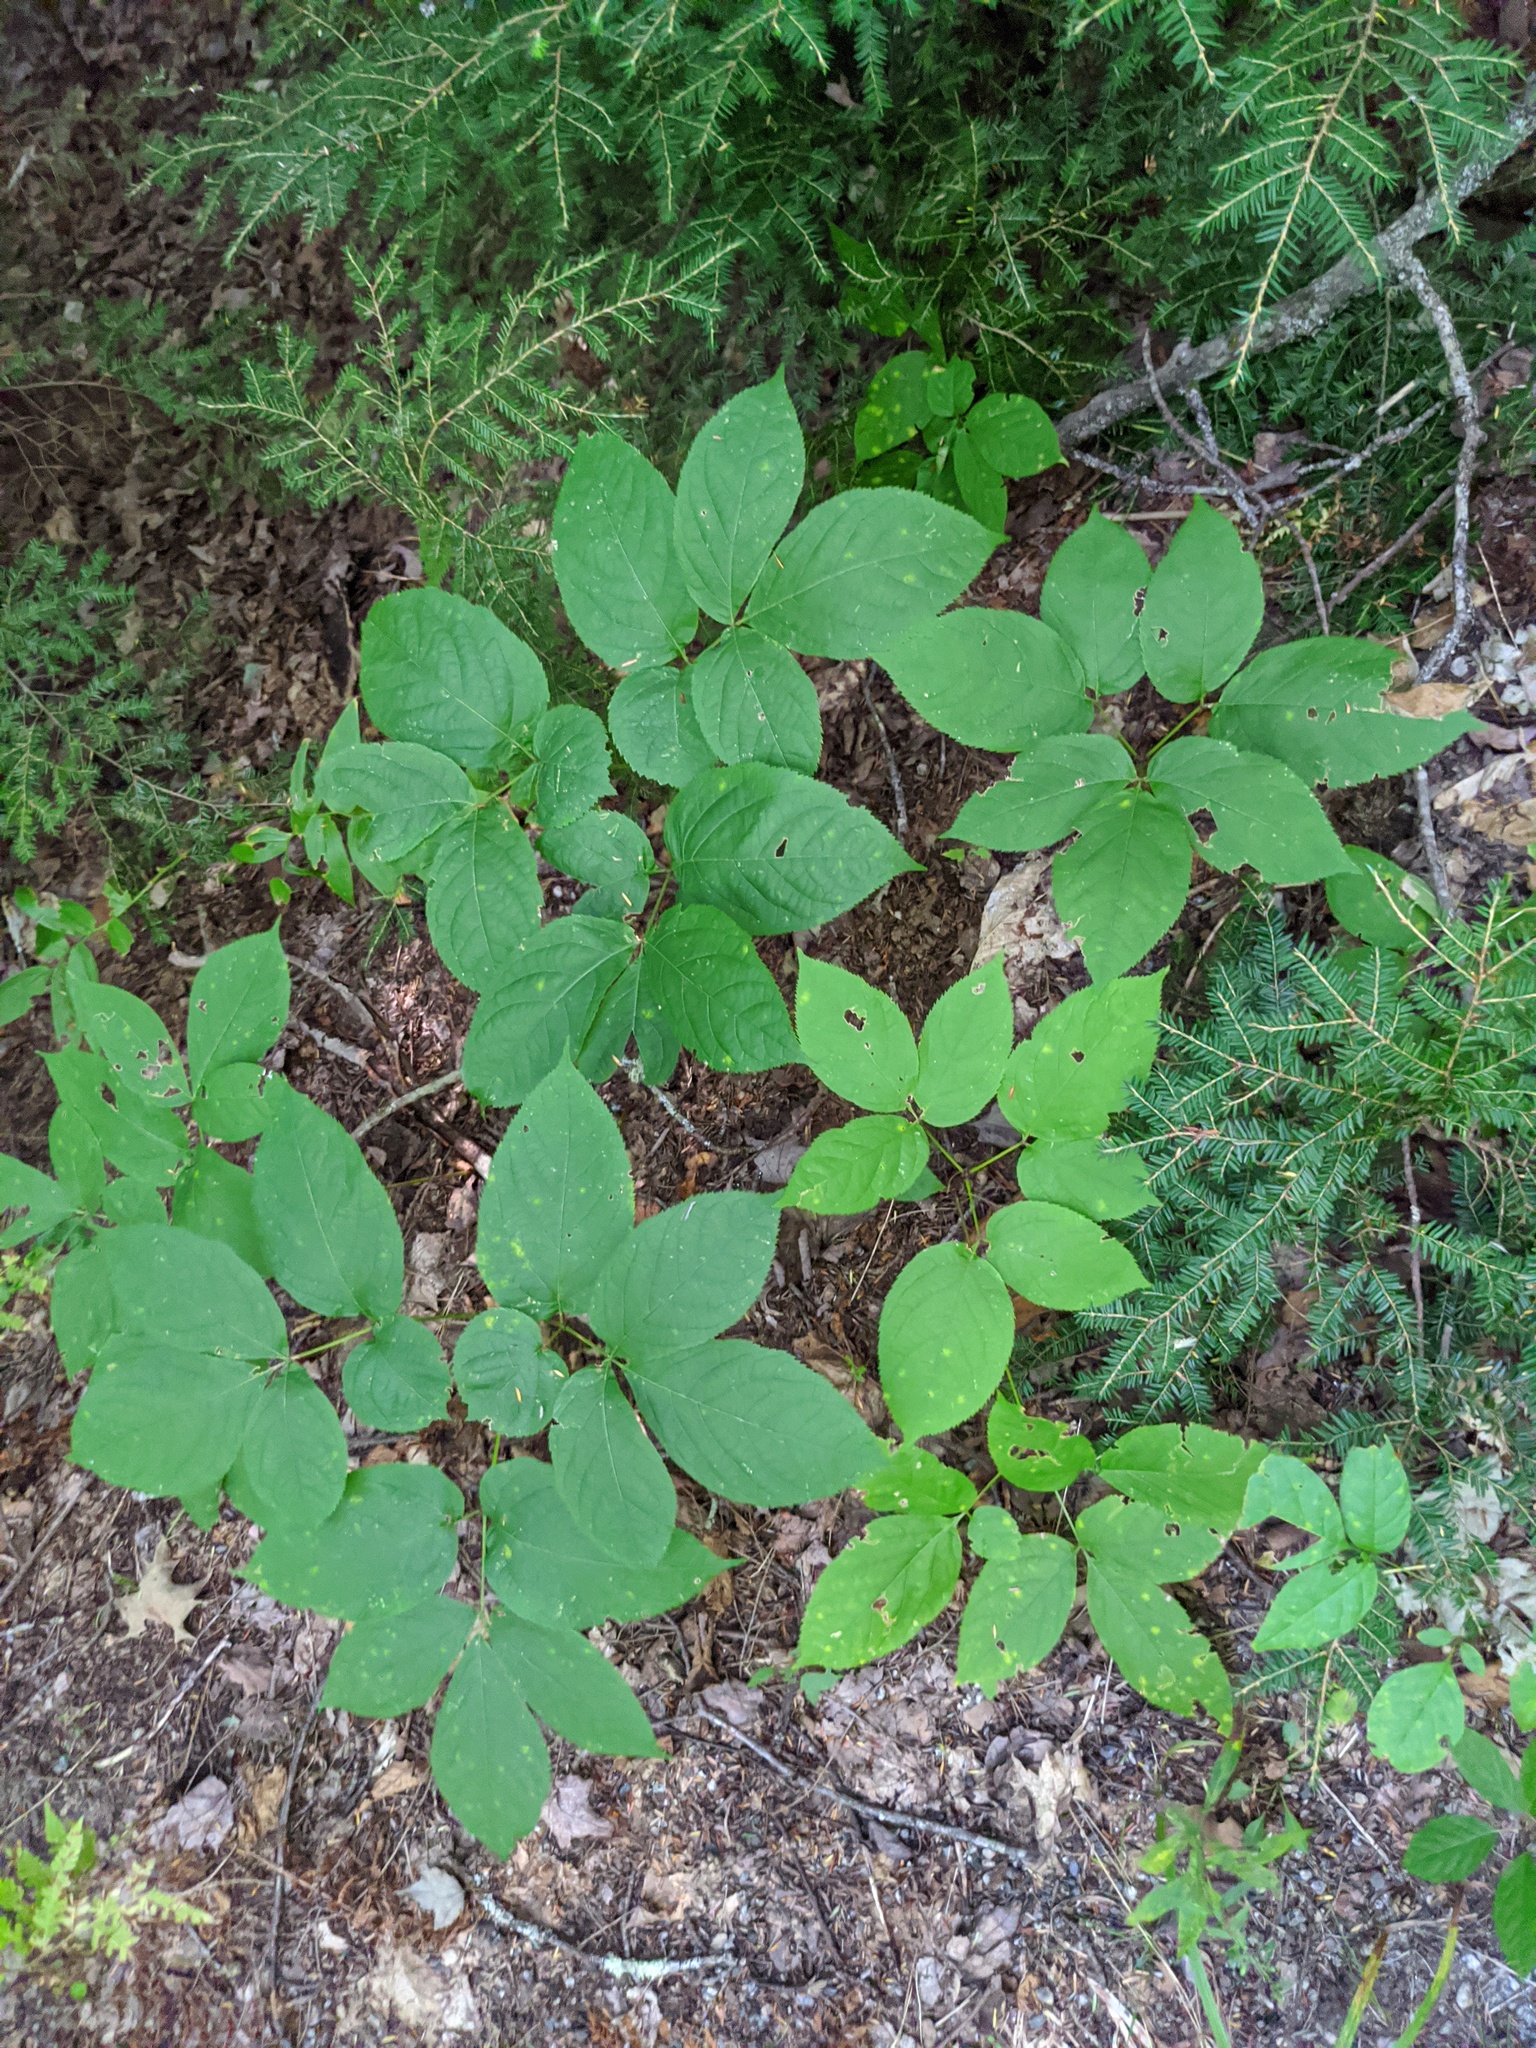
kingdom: Plantae
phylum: Tracheophyta
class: Magnoliopsida
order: Apiales
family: Araliaceae
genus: Aralia
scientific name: Aralia nudicaulis
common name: Wild sarsaparilla
